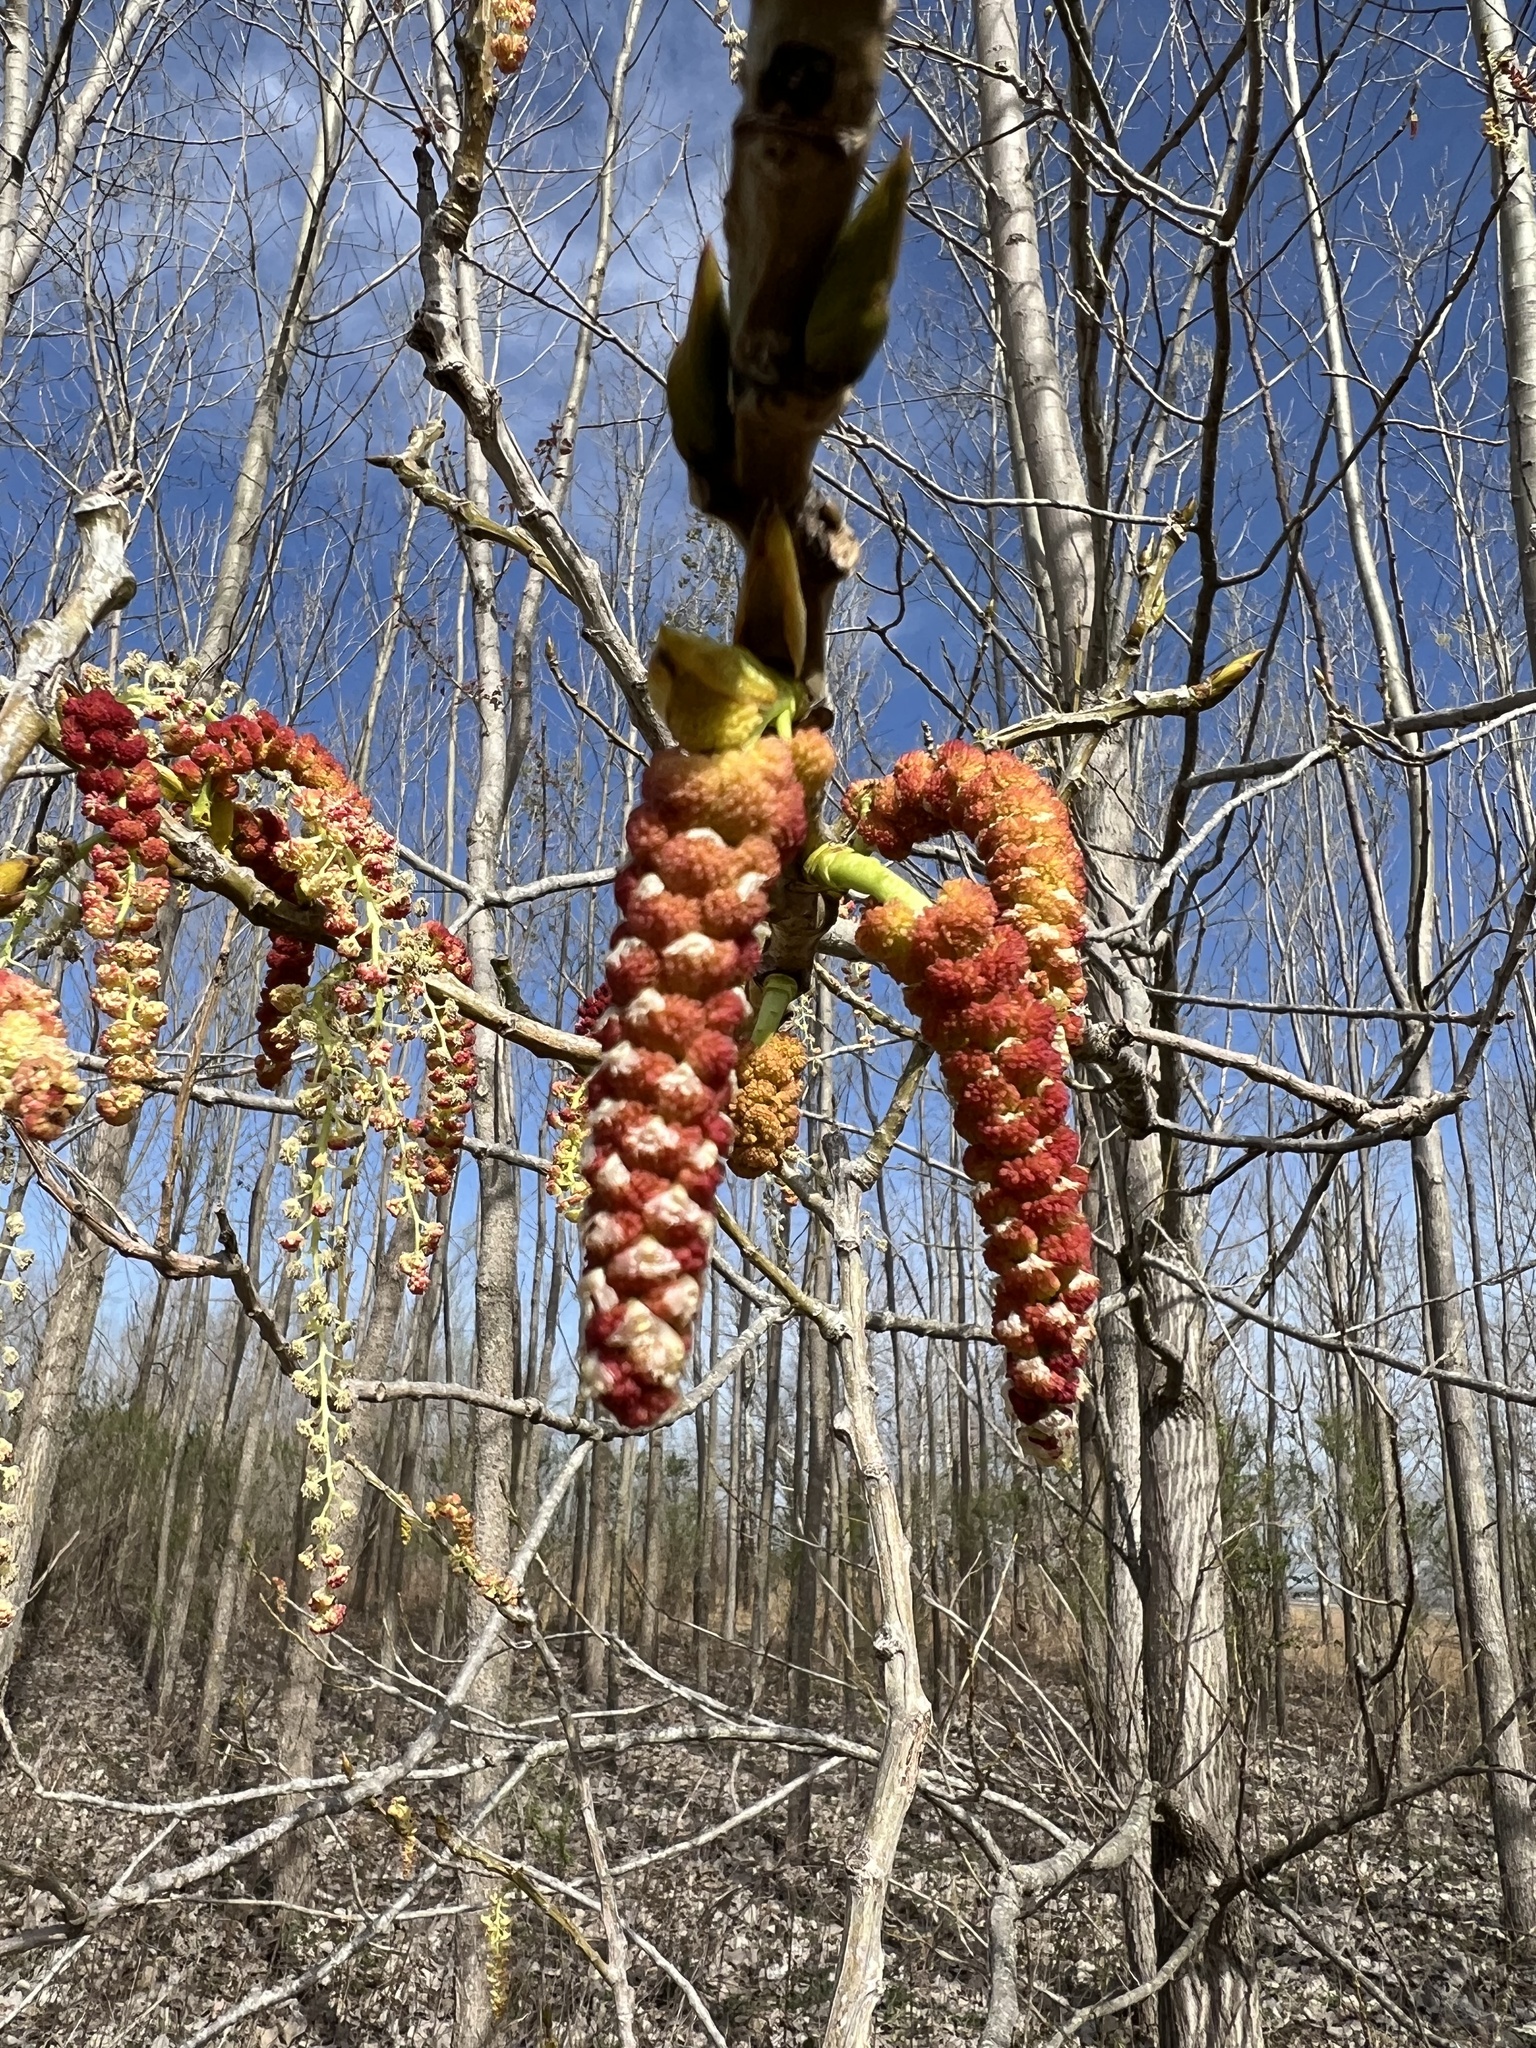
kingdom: Plantae
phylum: Tracheophyta
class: Magnoliopsida
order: Malpighiales
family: Salicaceae
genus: Populus
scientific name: Populus deltoides
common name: Eastern cottonwood
